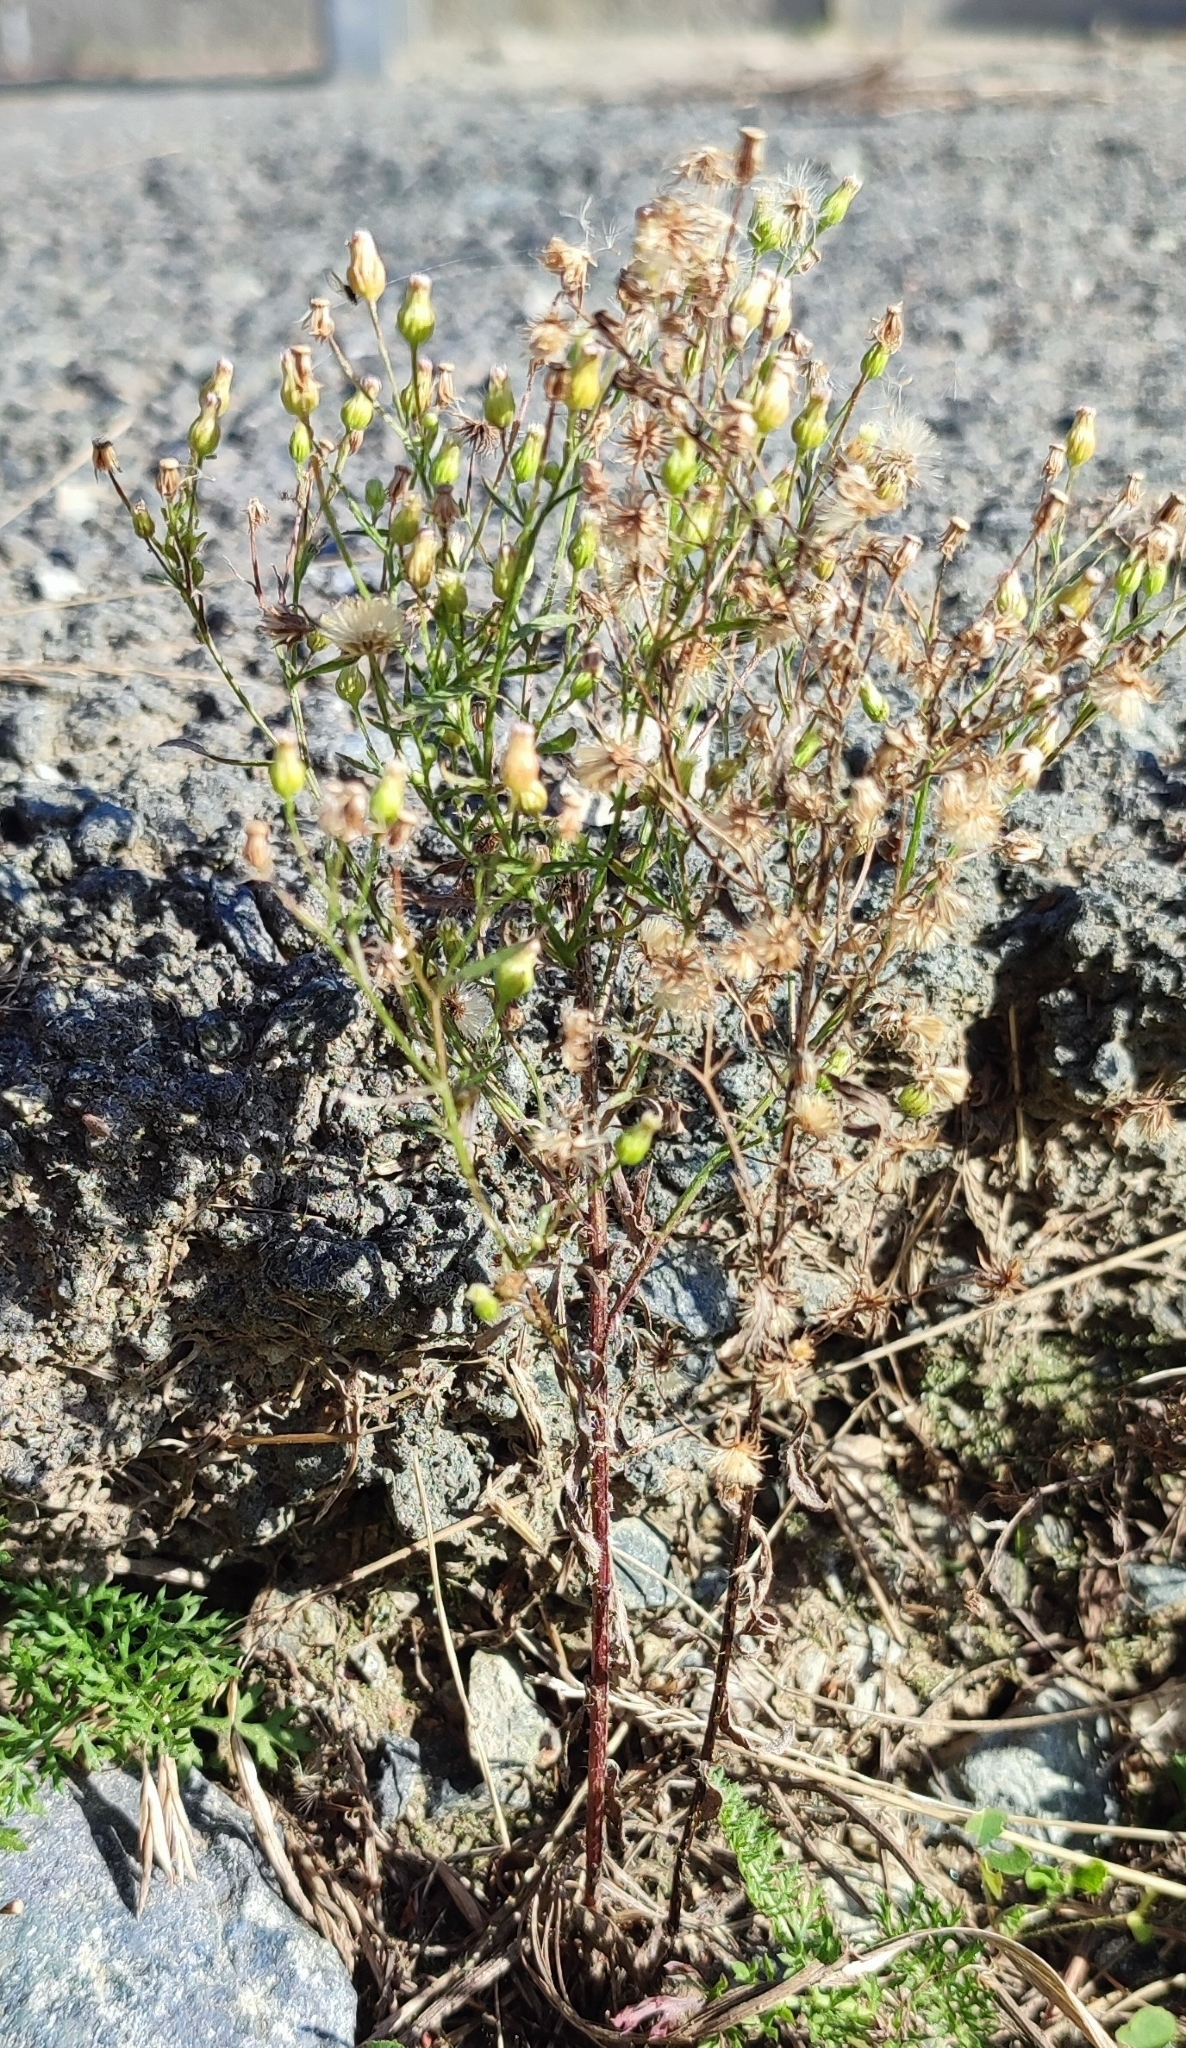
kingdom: Plantae
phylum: Tracheophyta
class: Magnoliopsida
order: Asterales
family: Asteraceae
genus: Erigeron
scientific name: Erigeron canadensis
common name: Canadian fleabane
